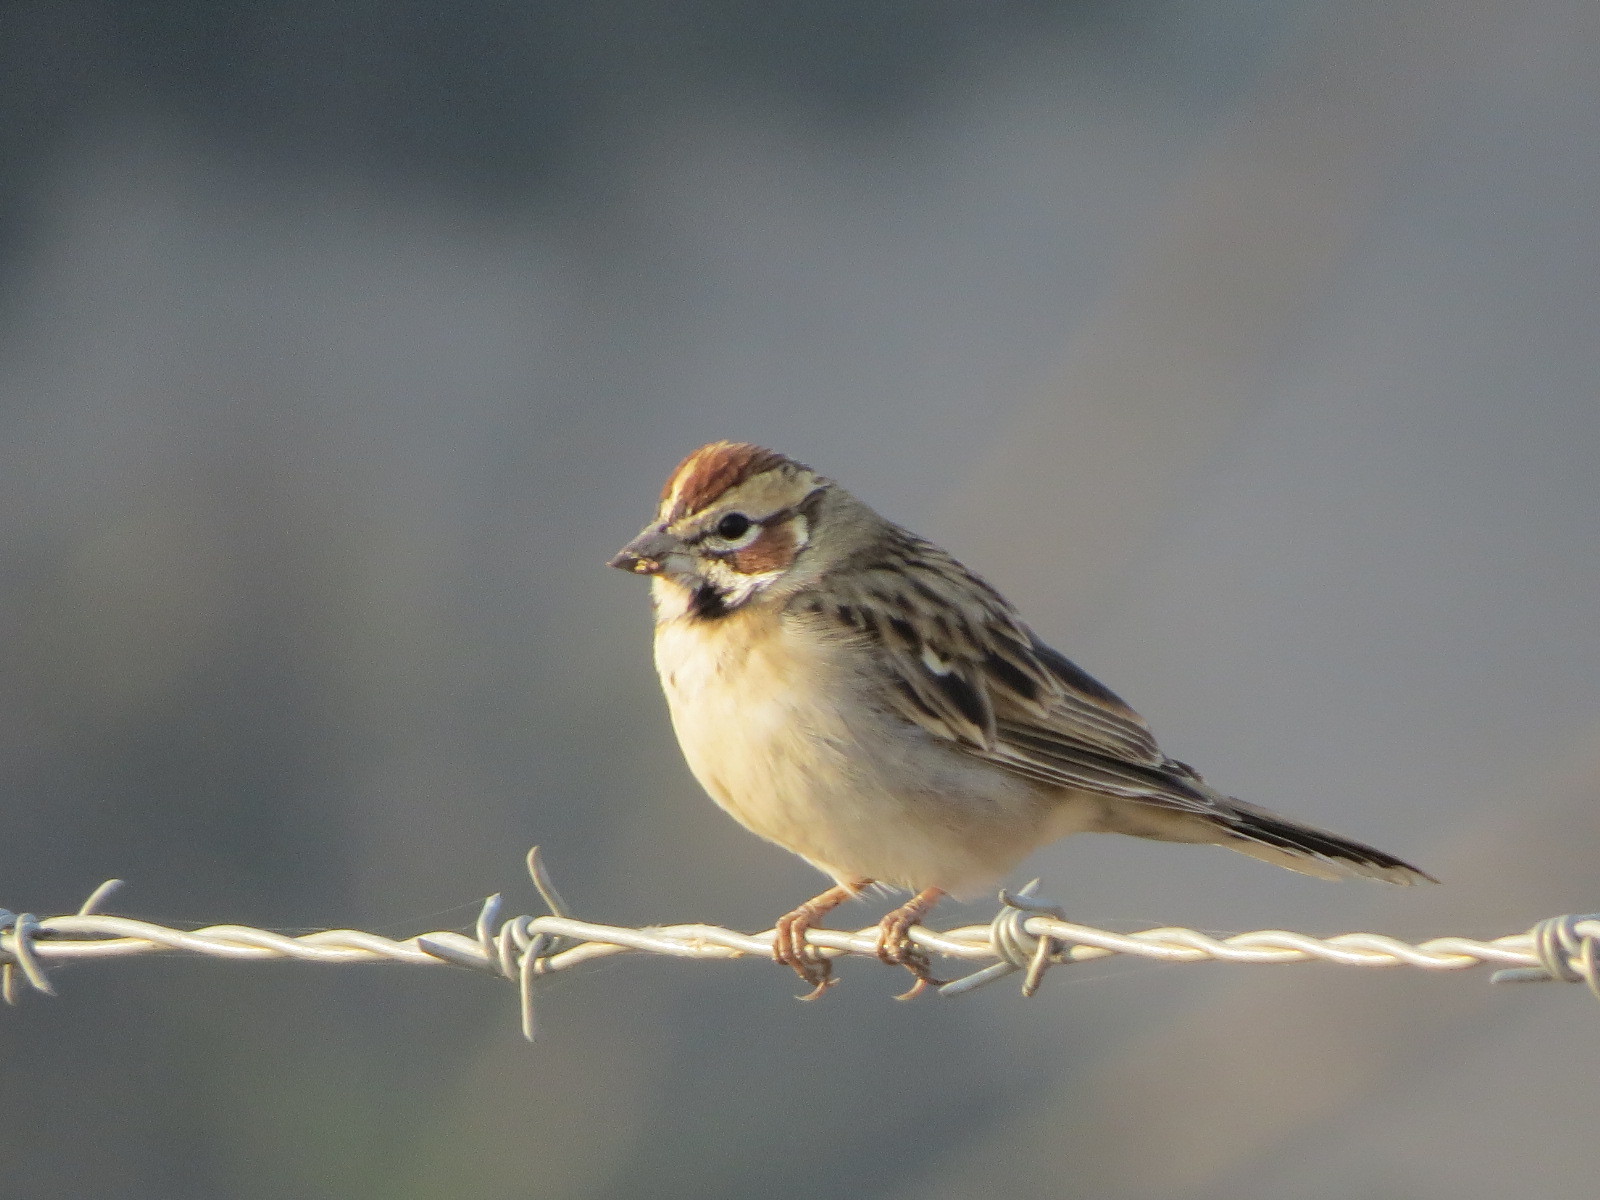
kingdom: Animalia
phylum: Chordata
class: Aves
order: Passeriformes
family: Passerellidae
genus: Chondestes
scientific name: Chondestes grammacus
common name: Lark sparrow
